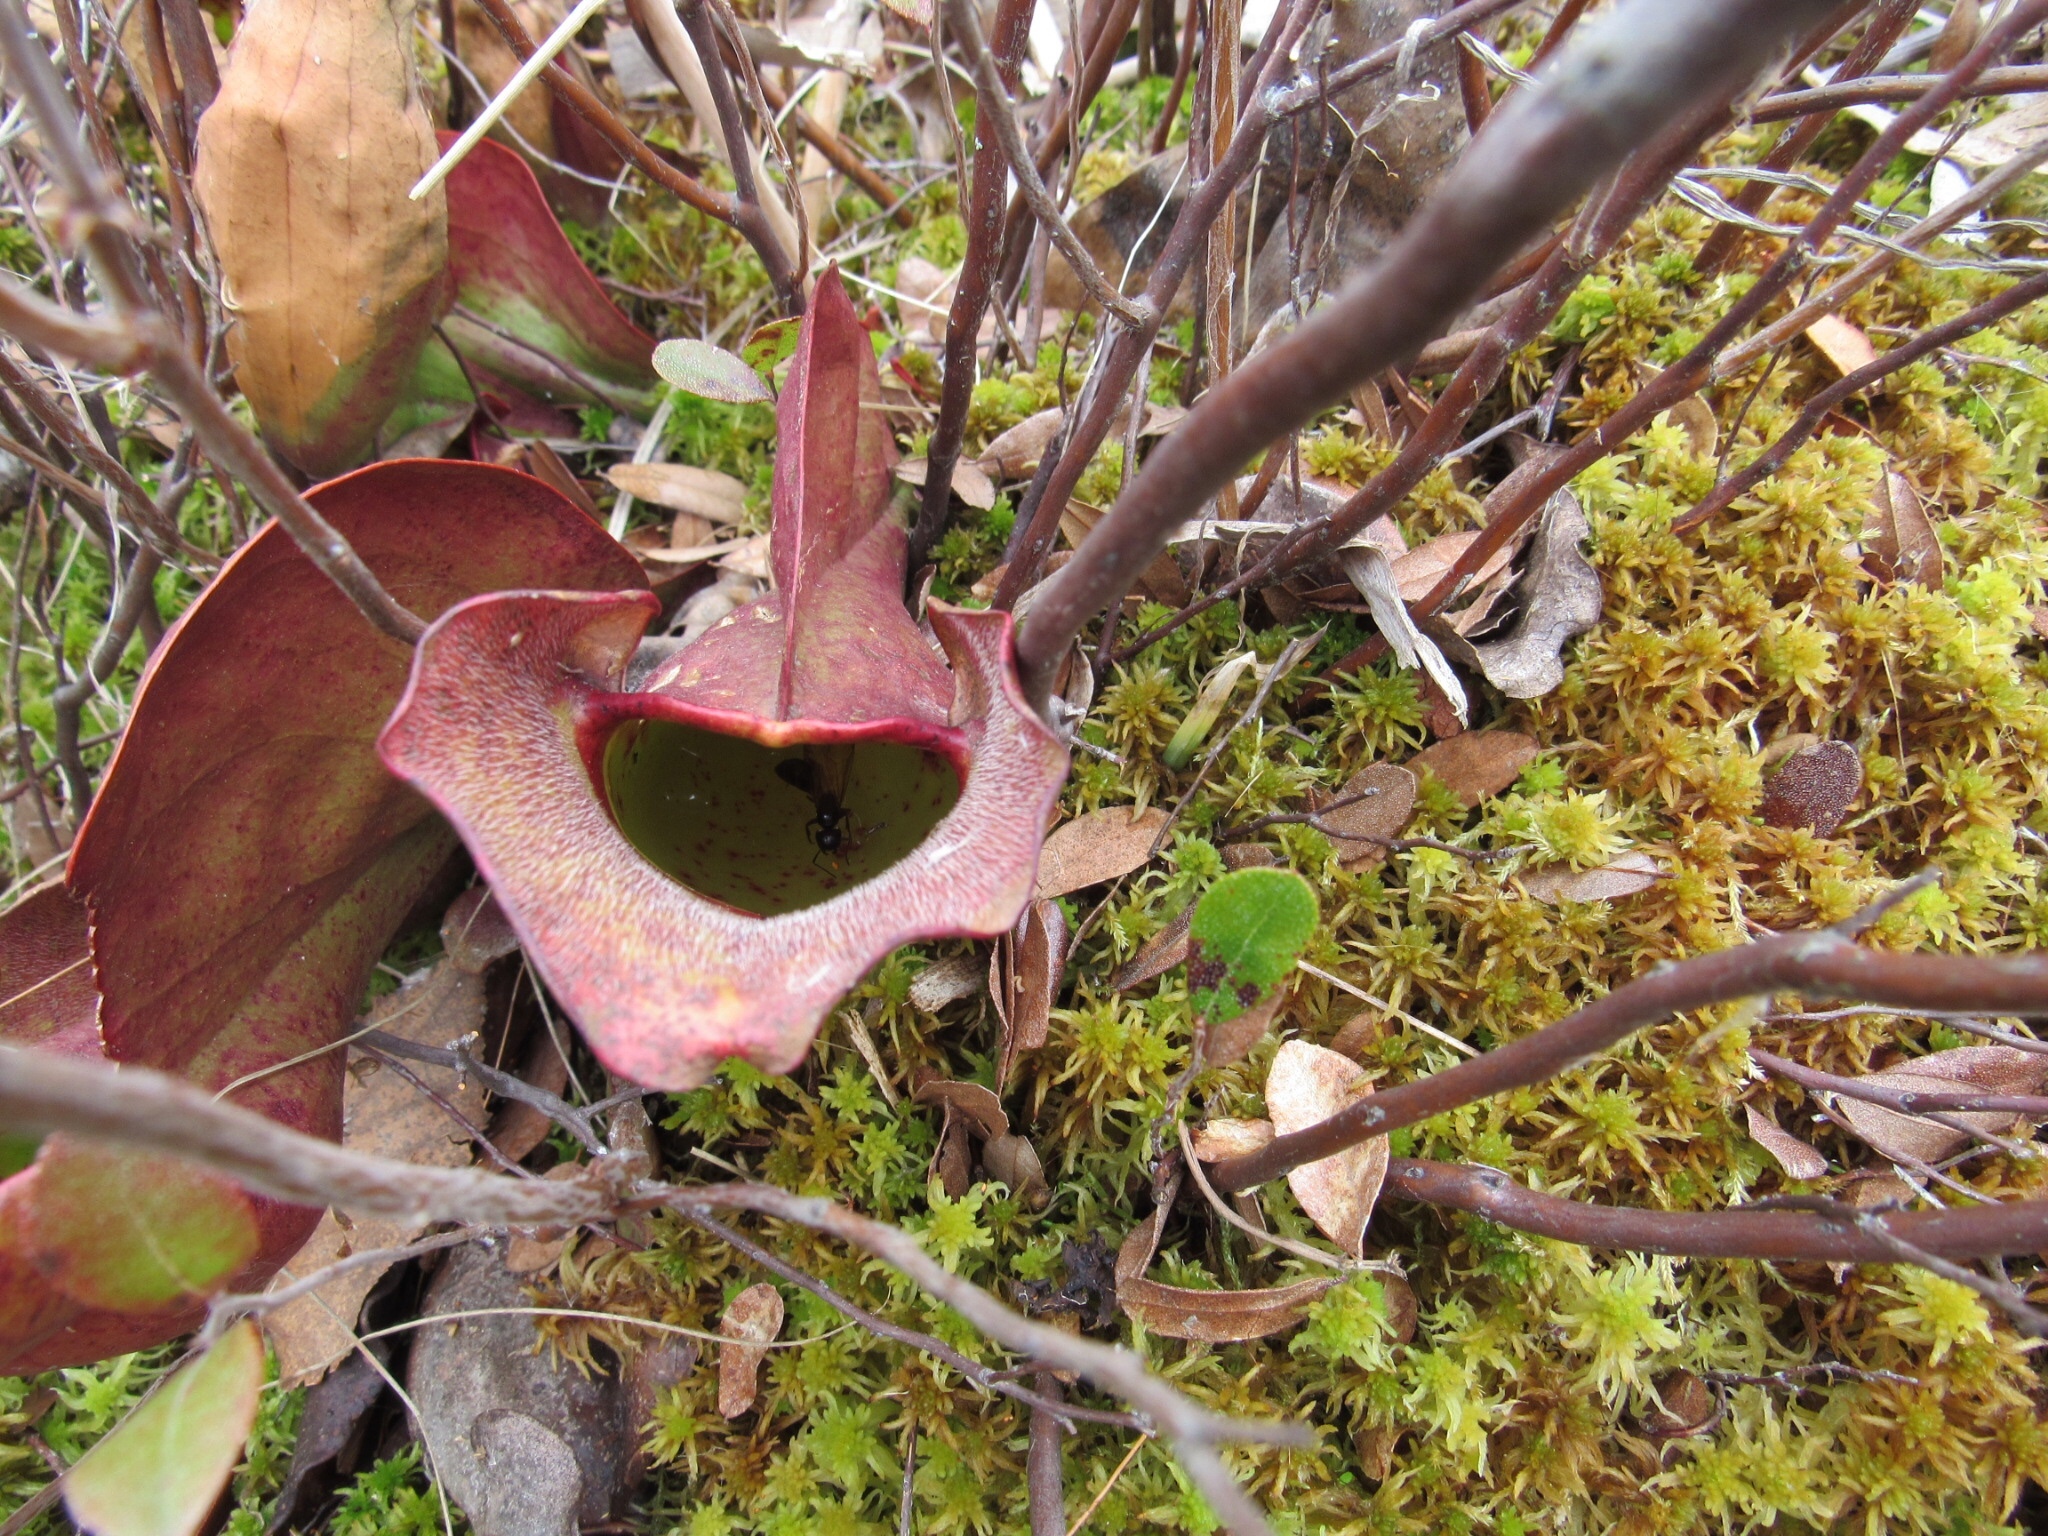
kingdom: Plantae
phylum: Tracheophyta
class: Magnoliopsida
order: Ericales
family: Sarraceniaceae
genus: Sarracenia
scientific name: Sarracenia purpurea
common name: Pitcherplant
